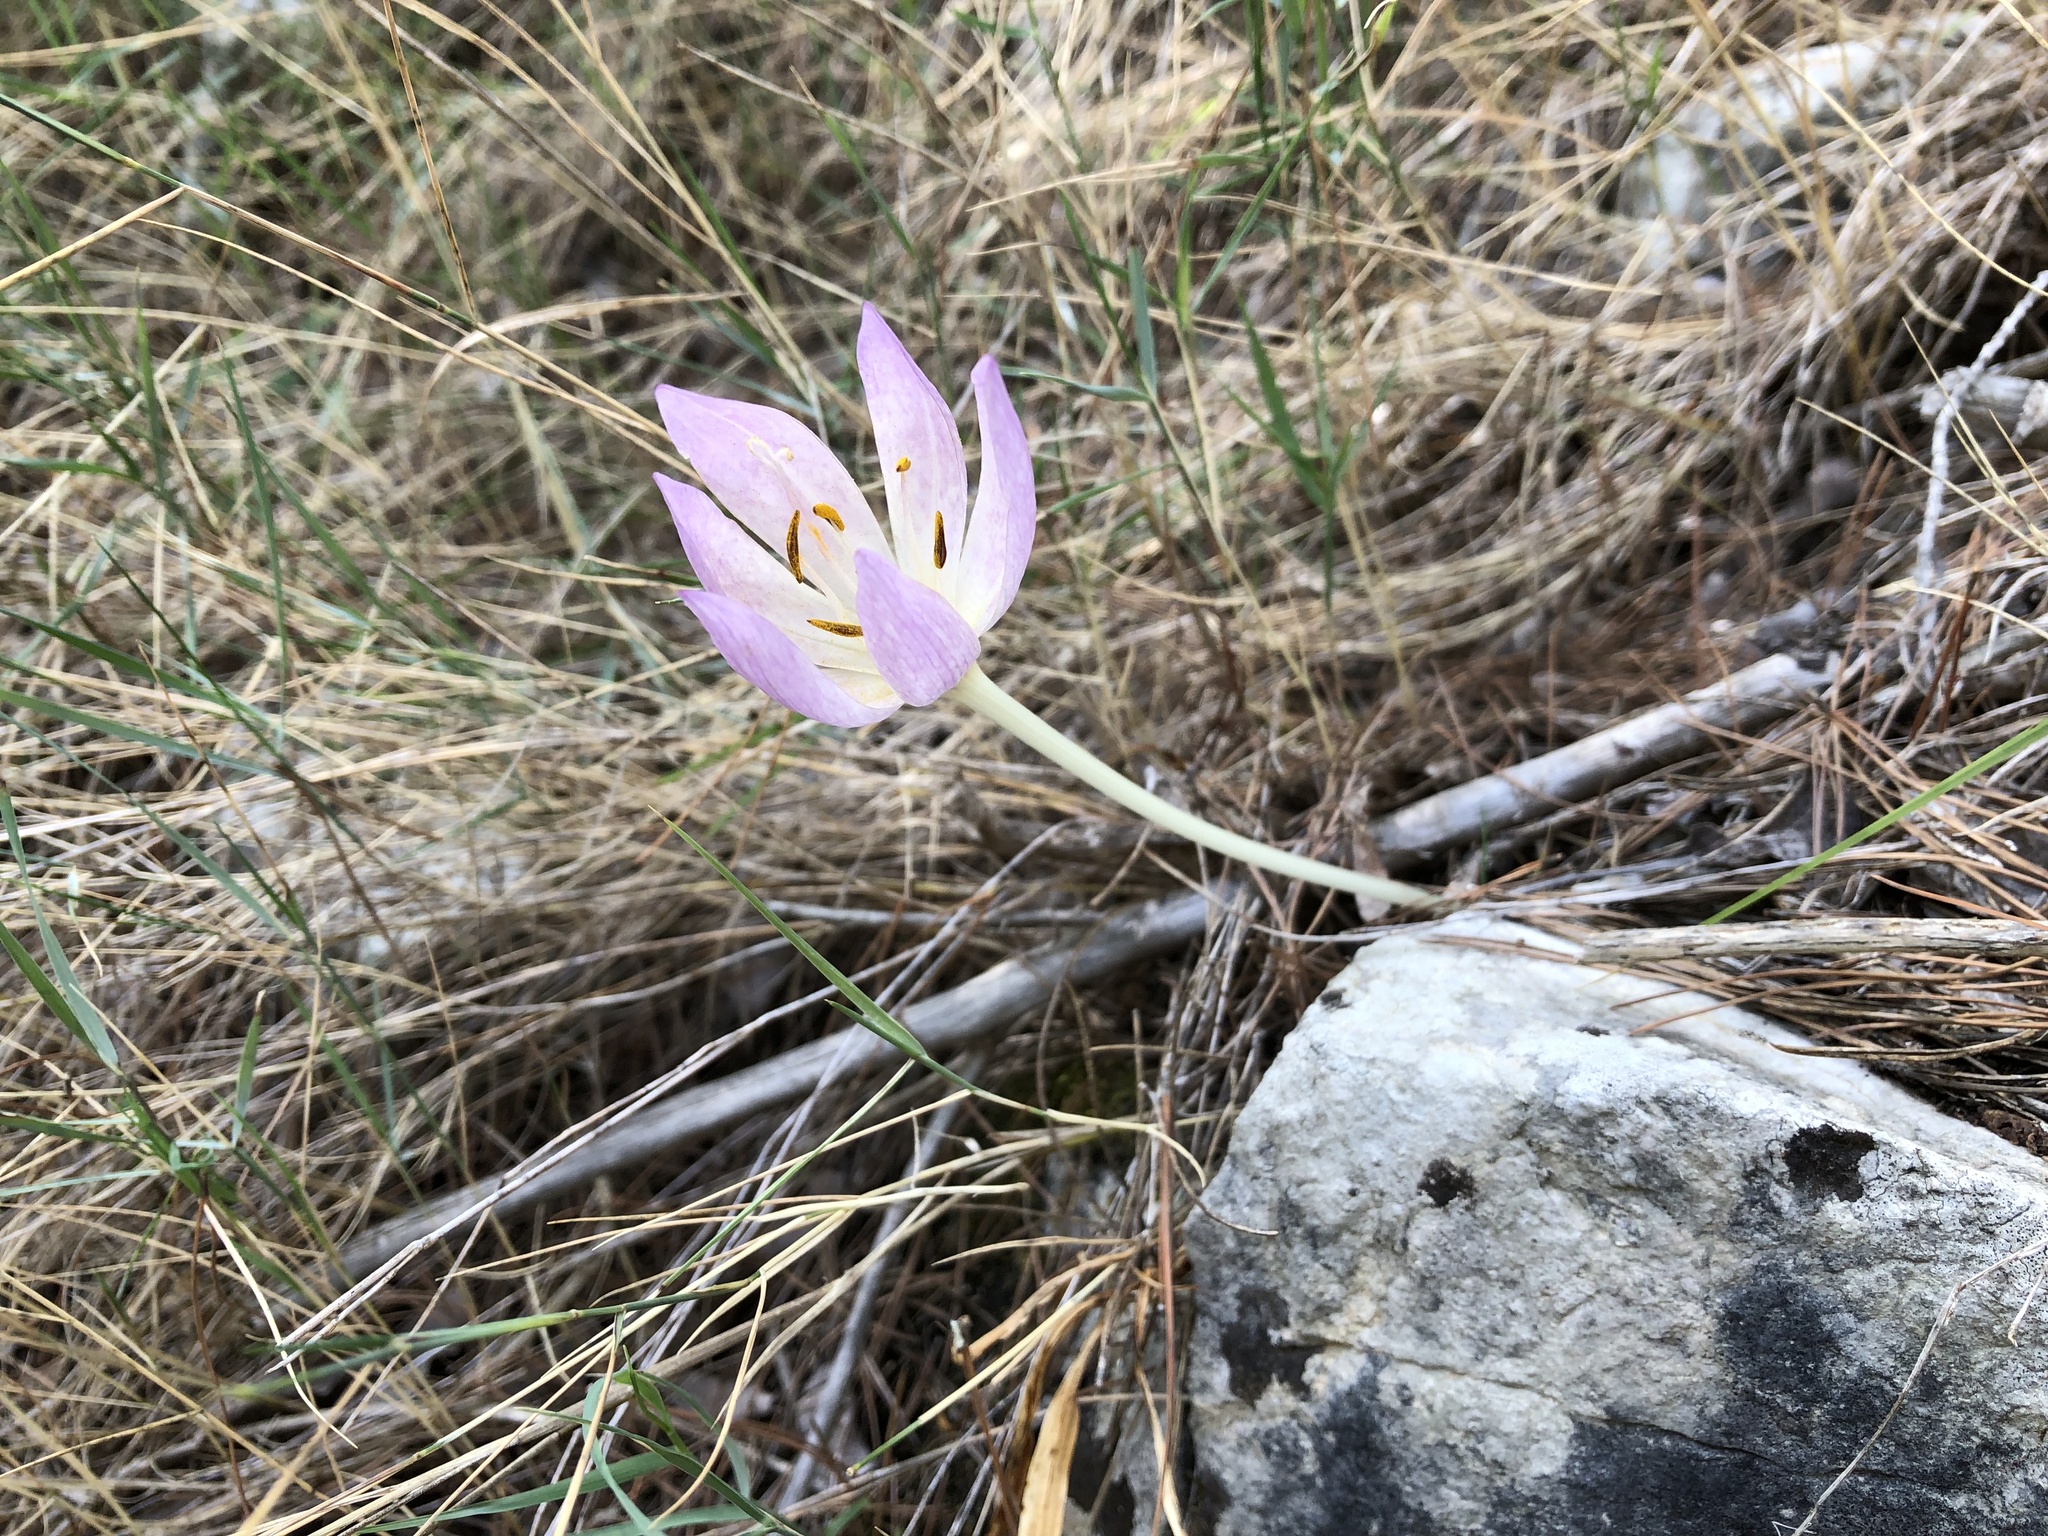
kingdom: Plantae
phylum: Tracheophyta
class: Liliopsida
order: Liliales
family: Colchicaceae
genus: Colchicum
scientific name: Colchicum haynaldii
